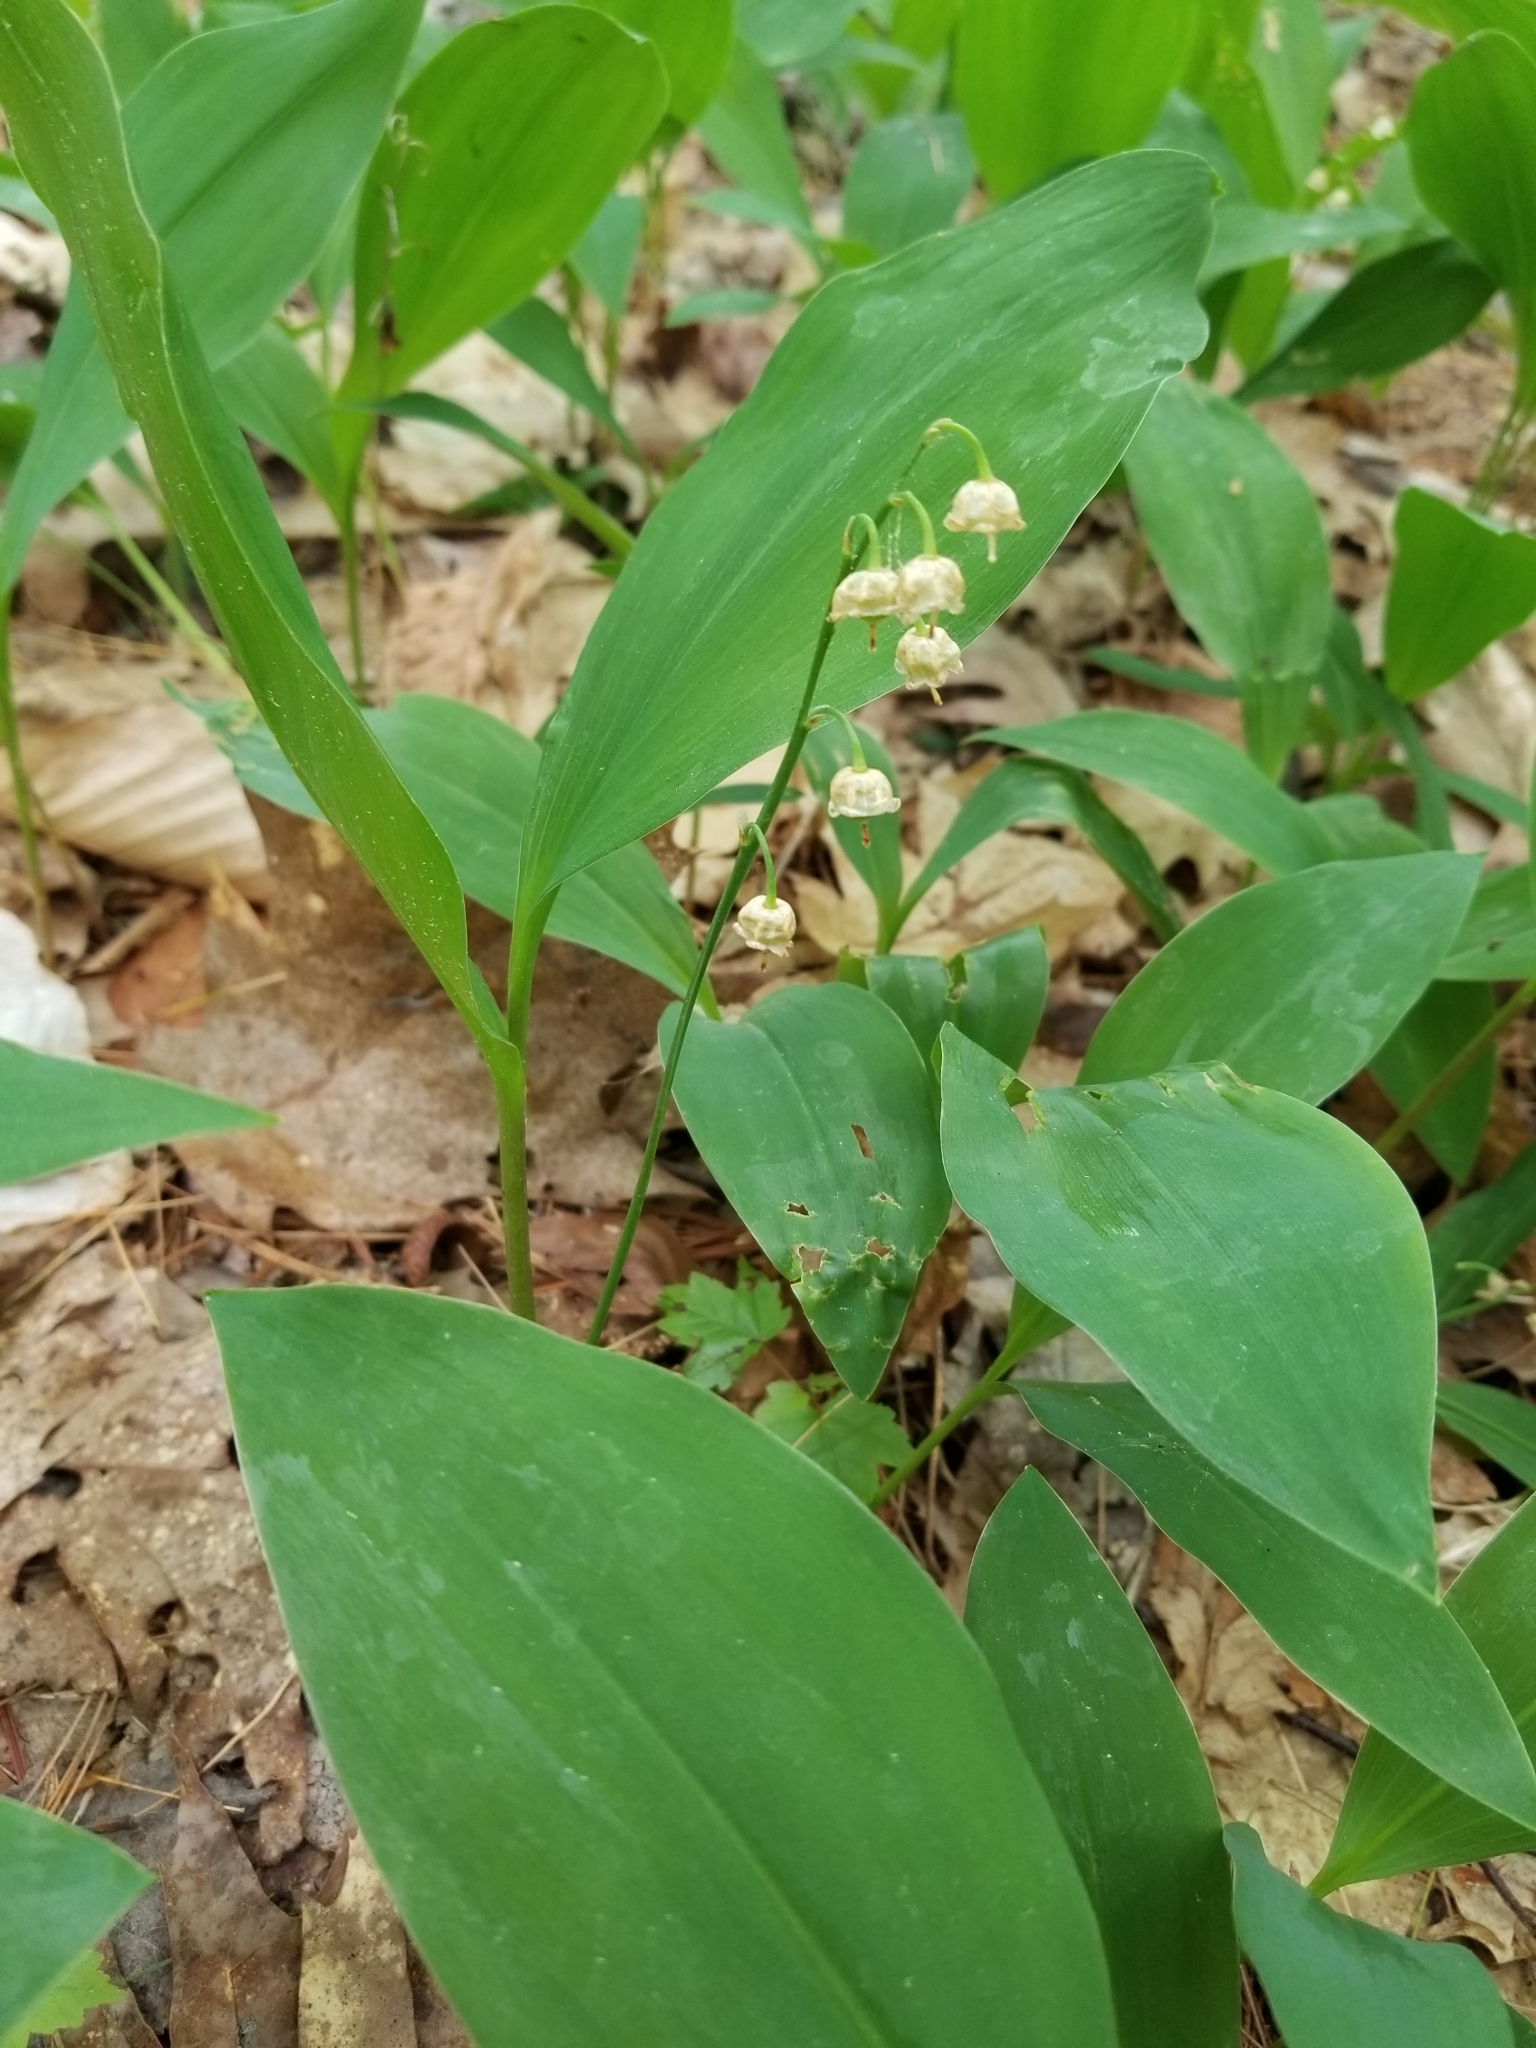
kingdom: Plantae
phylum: Tracheophyta
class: Liliopsida
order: Asparagales
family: Asparagaceae
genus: Convallaria
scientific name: Convallaria majalis
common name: Lily-of-the-valley
